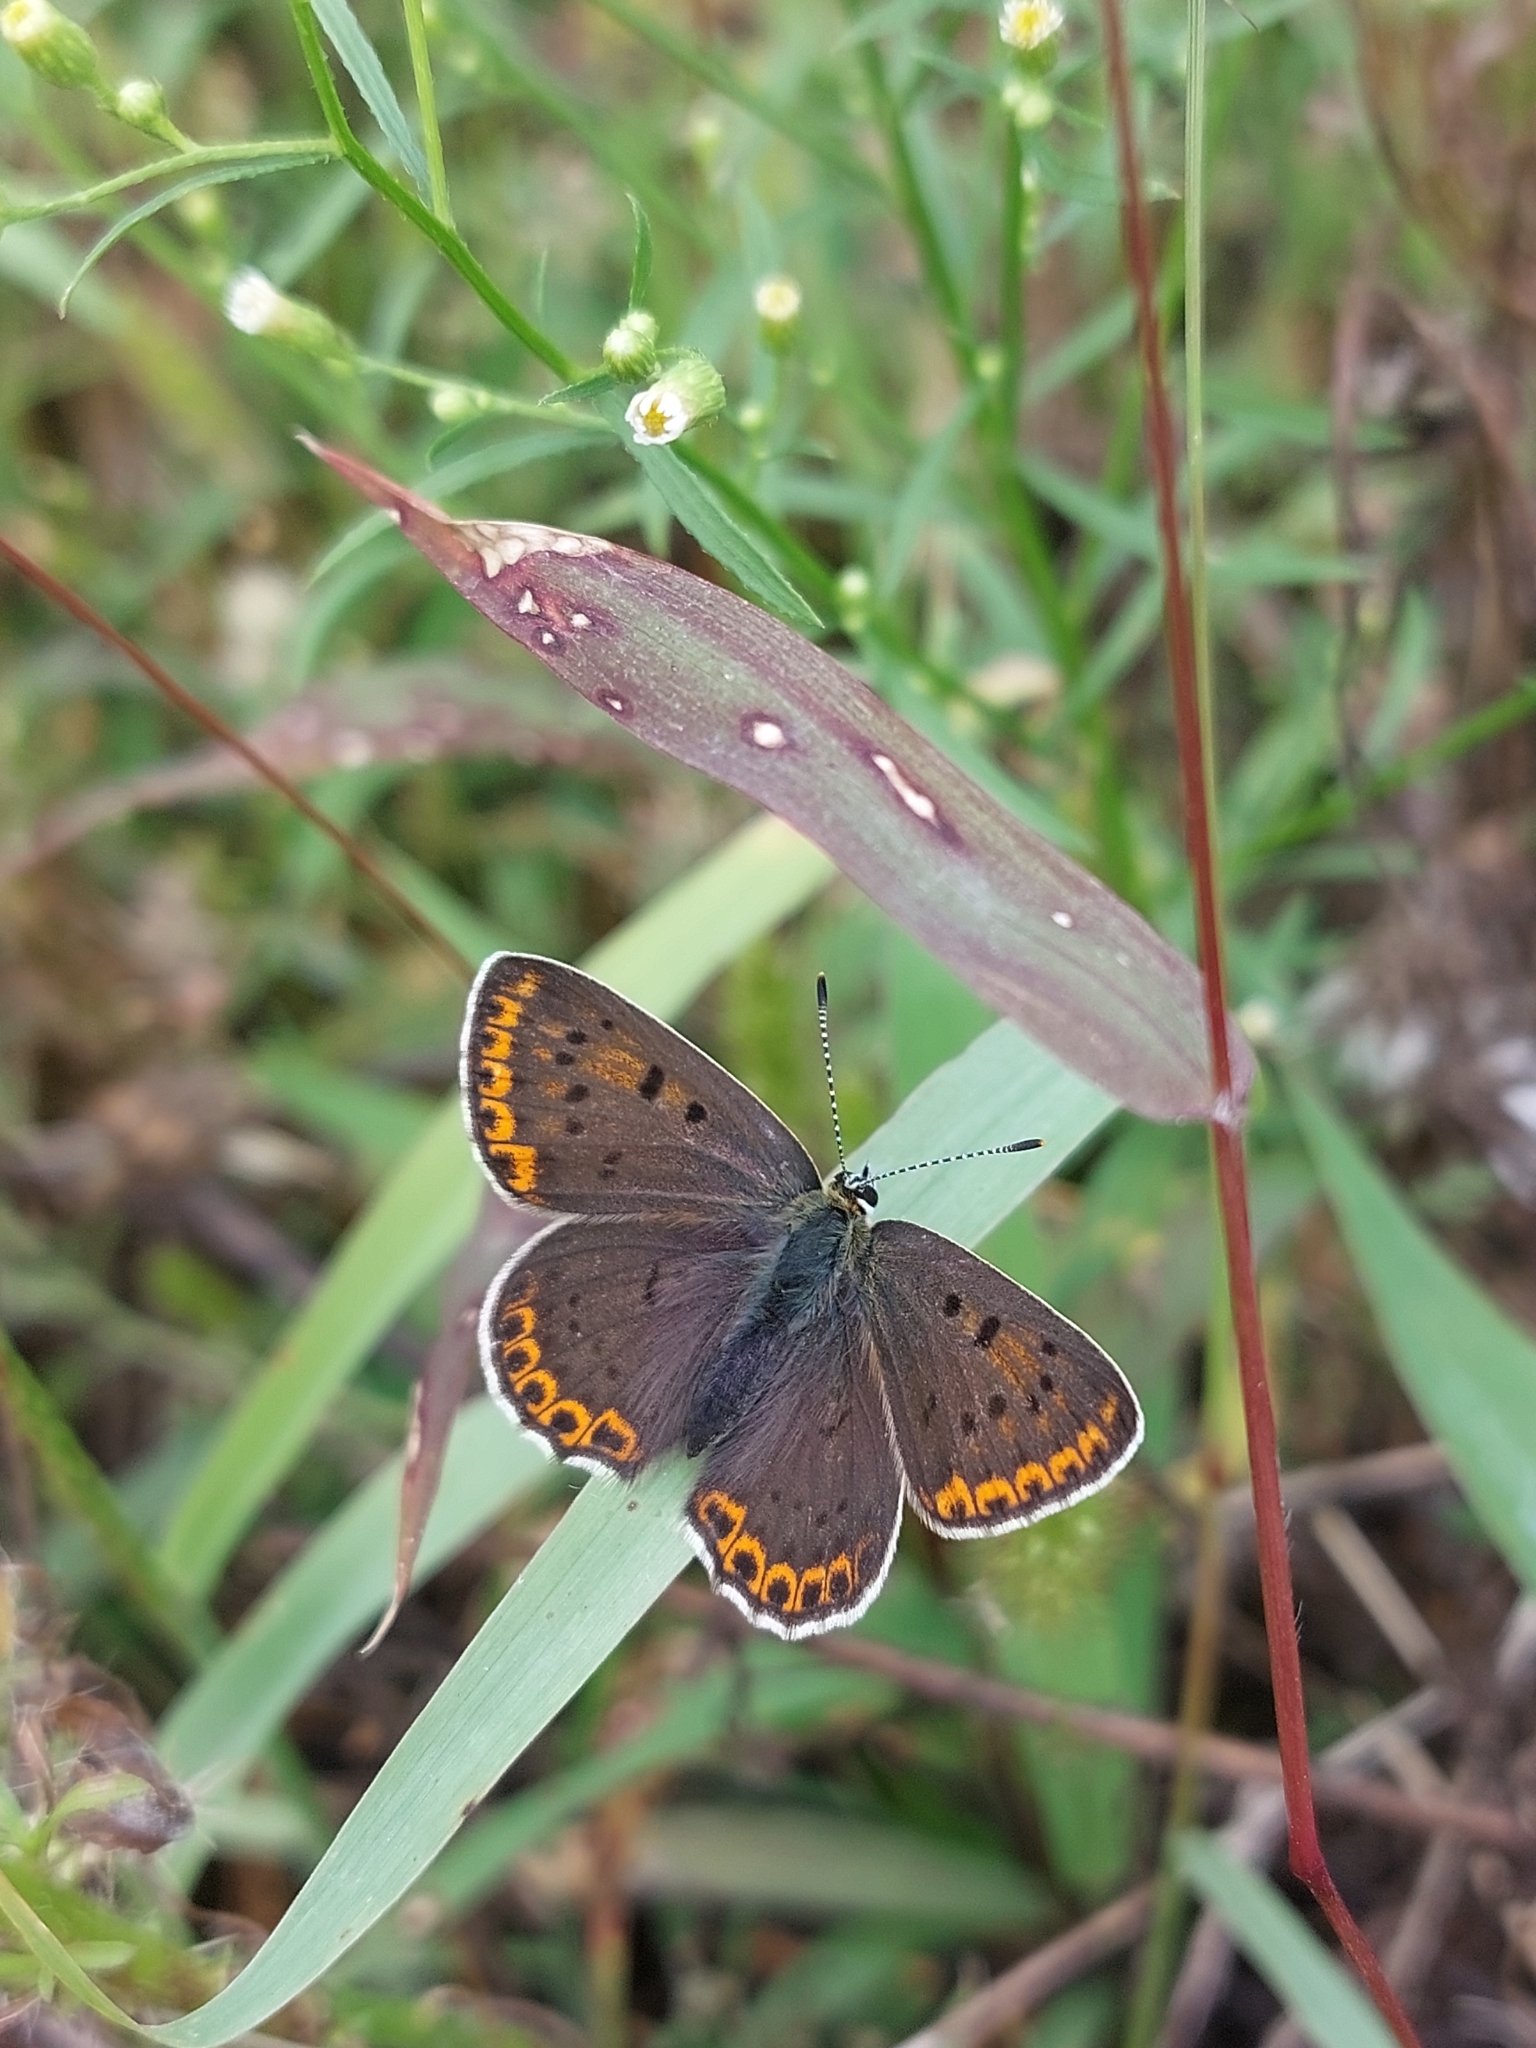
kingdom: Animalia
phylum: Arthropoda
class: Insecta
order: Lepidoptera
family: Lycaenidae
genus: Loweia
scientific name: Loweia tityrus
